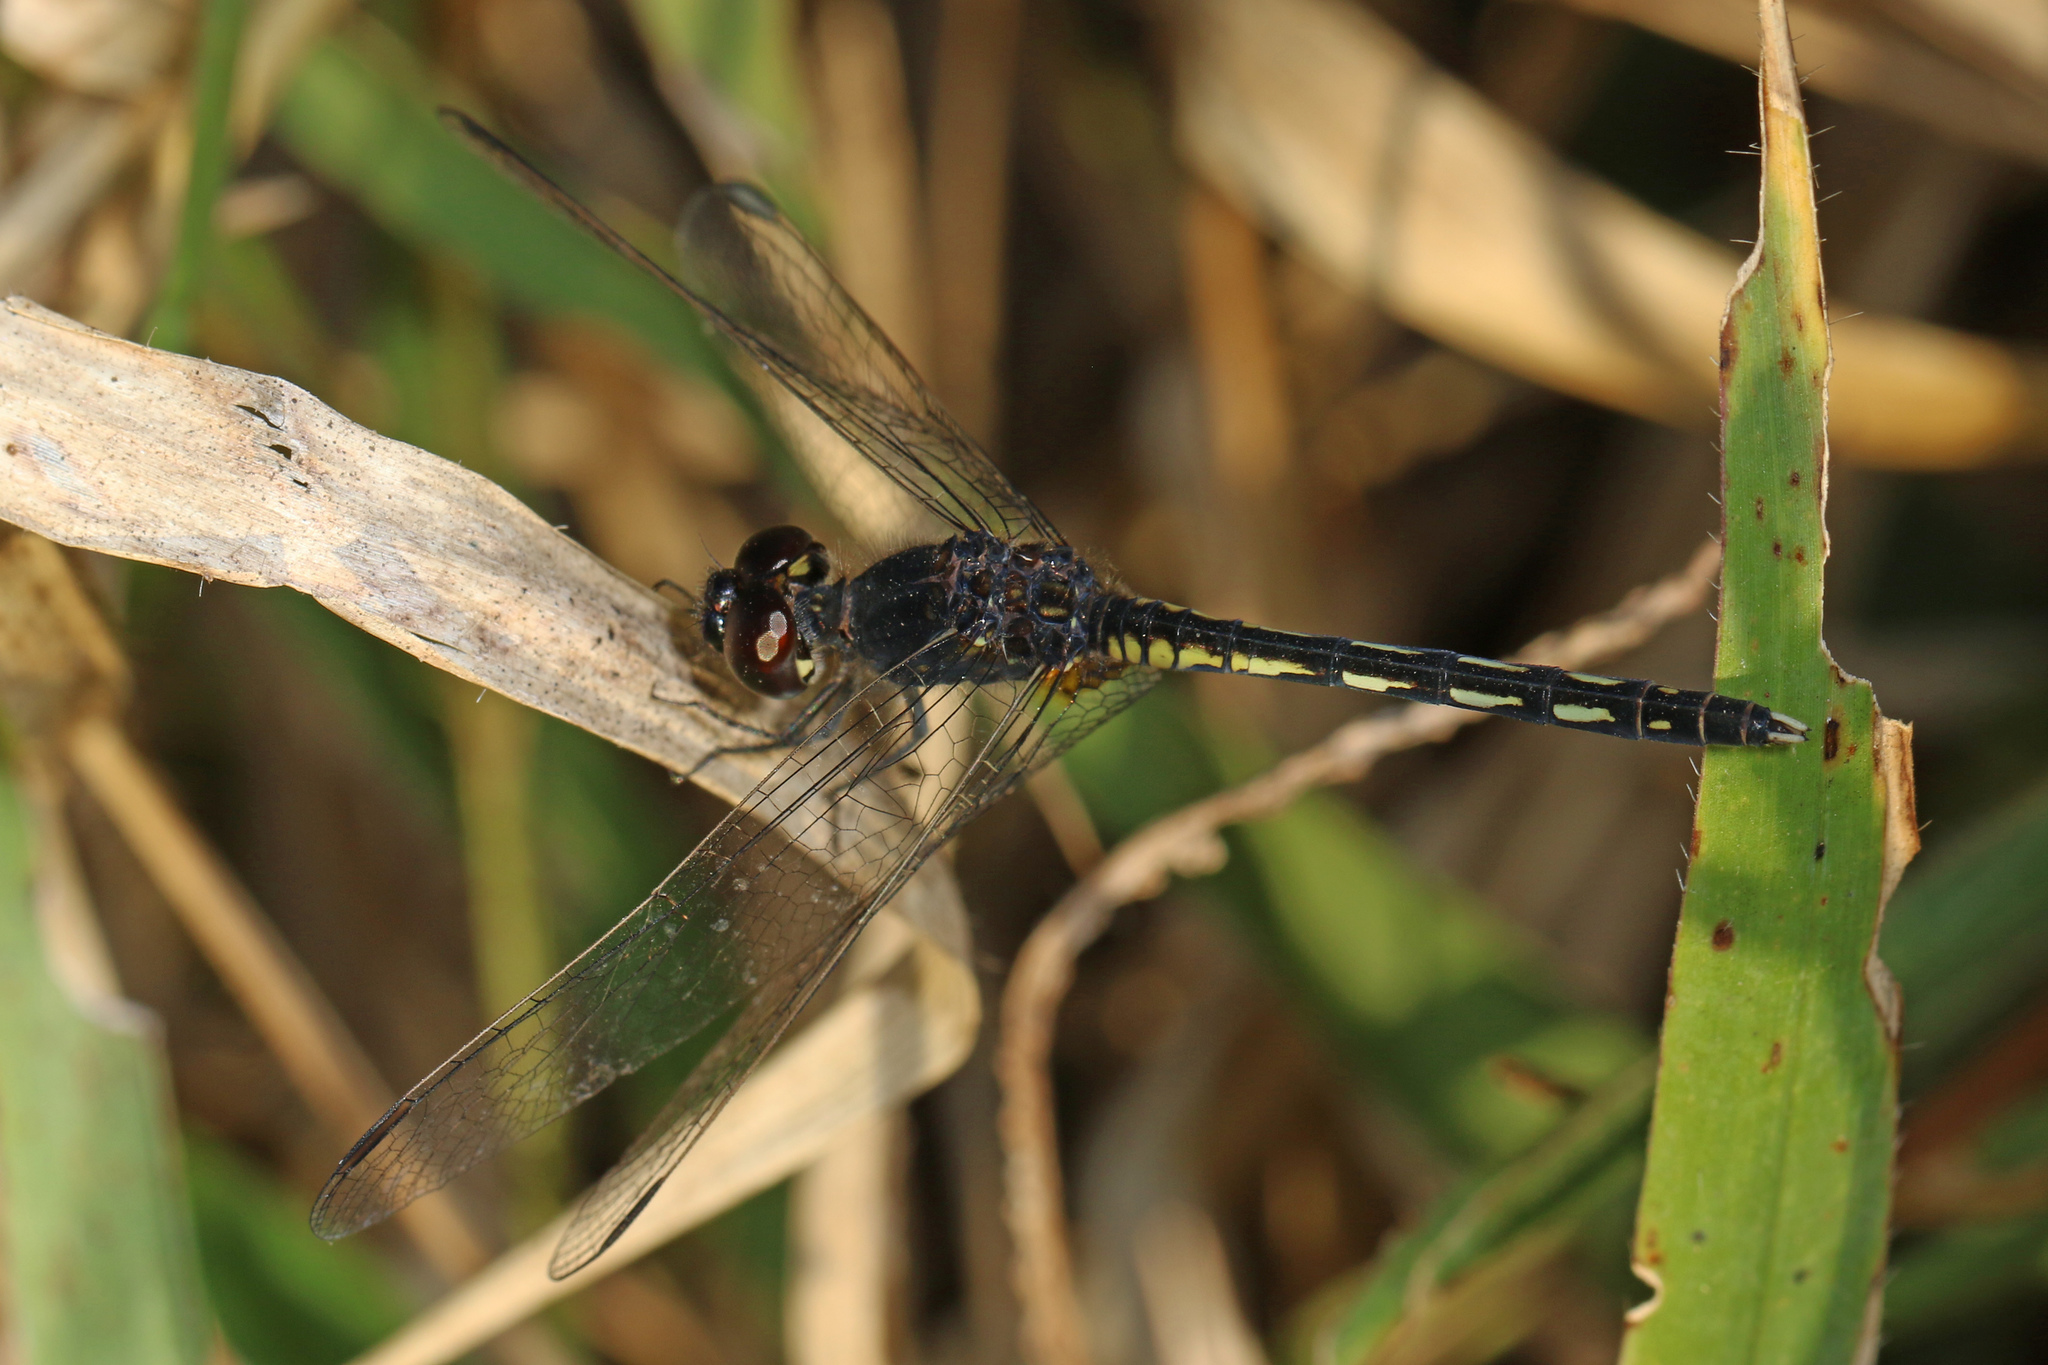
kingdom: Animalia
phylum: Arthropoda
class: Insecta
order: Odonata
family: Libellulidae
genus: Diplacodes
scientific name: Diplacodes lefebvrii
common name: Black percher
